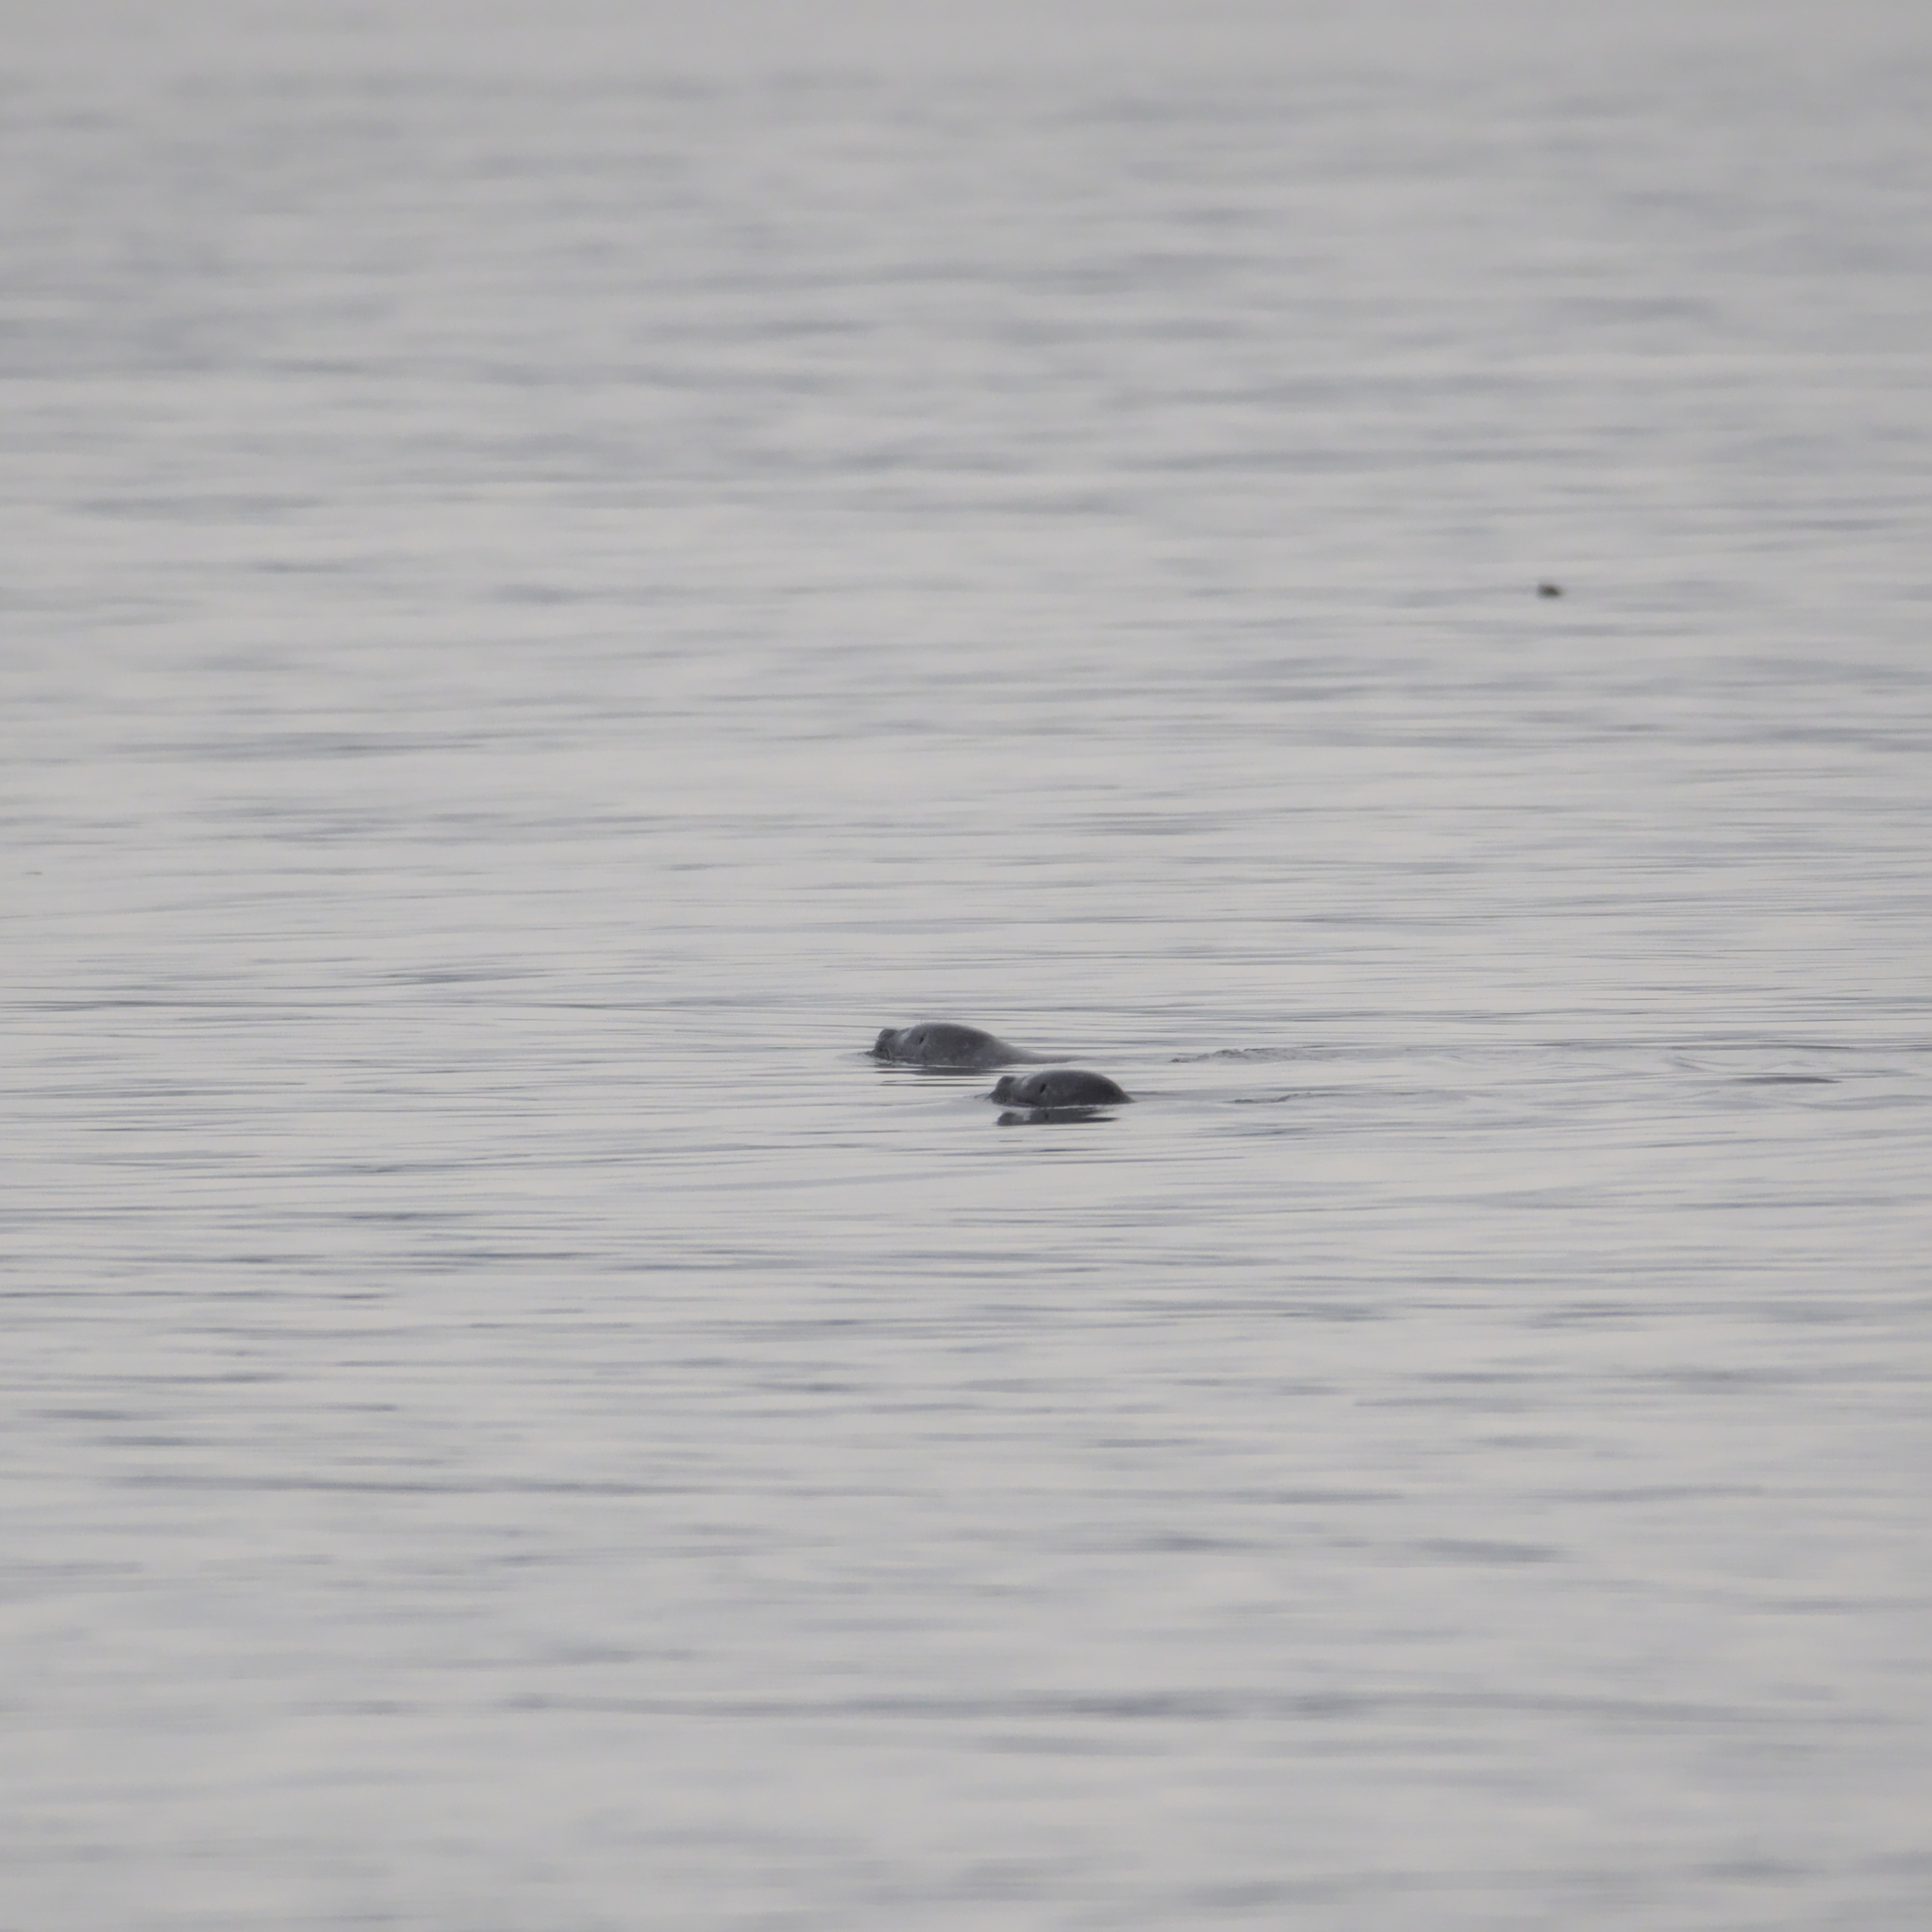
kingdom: Animalia
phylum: Chordata
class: Mammalia
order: Carnivora
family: Phocidae
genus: Phoca
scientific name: Phoca vitulina
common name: Harbor seal
